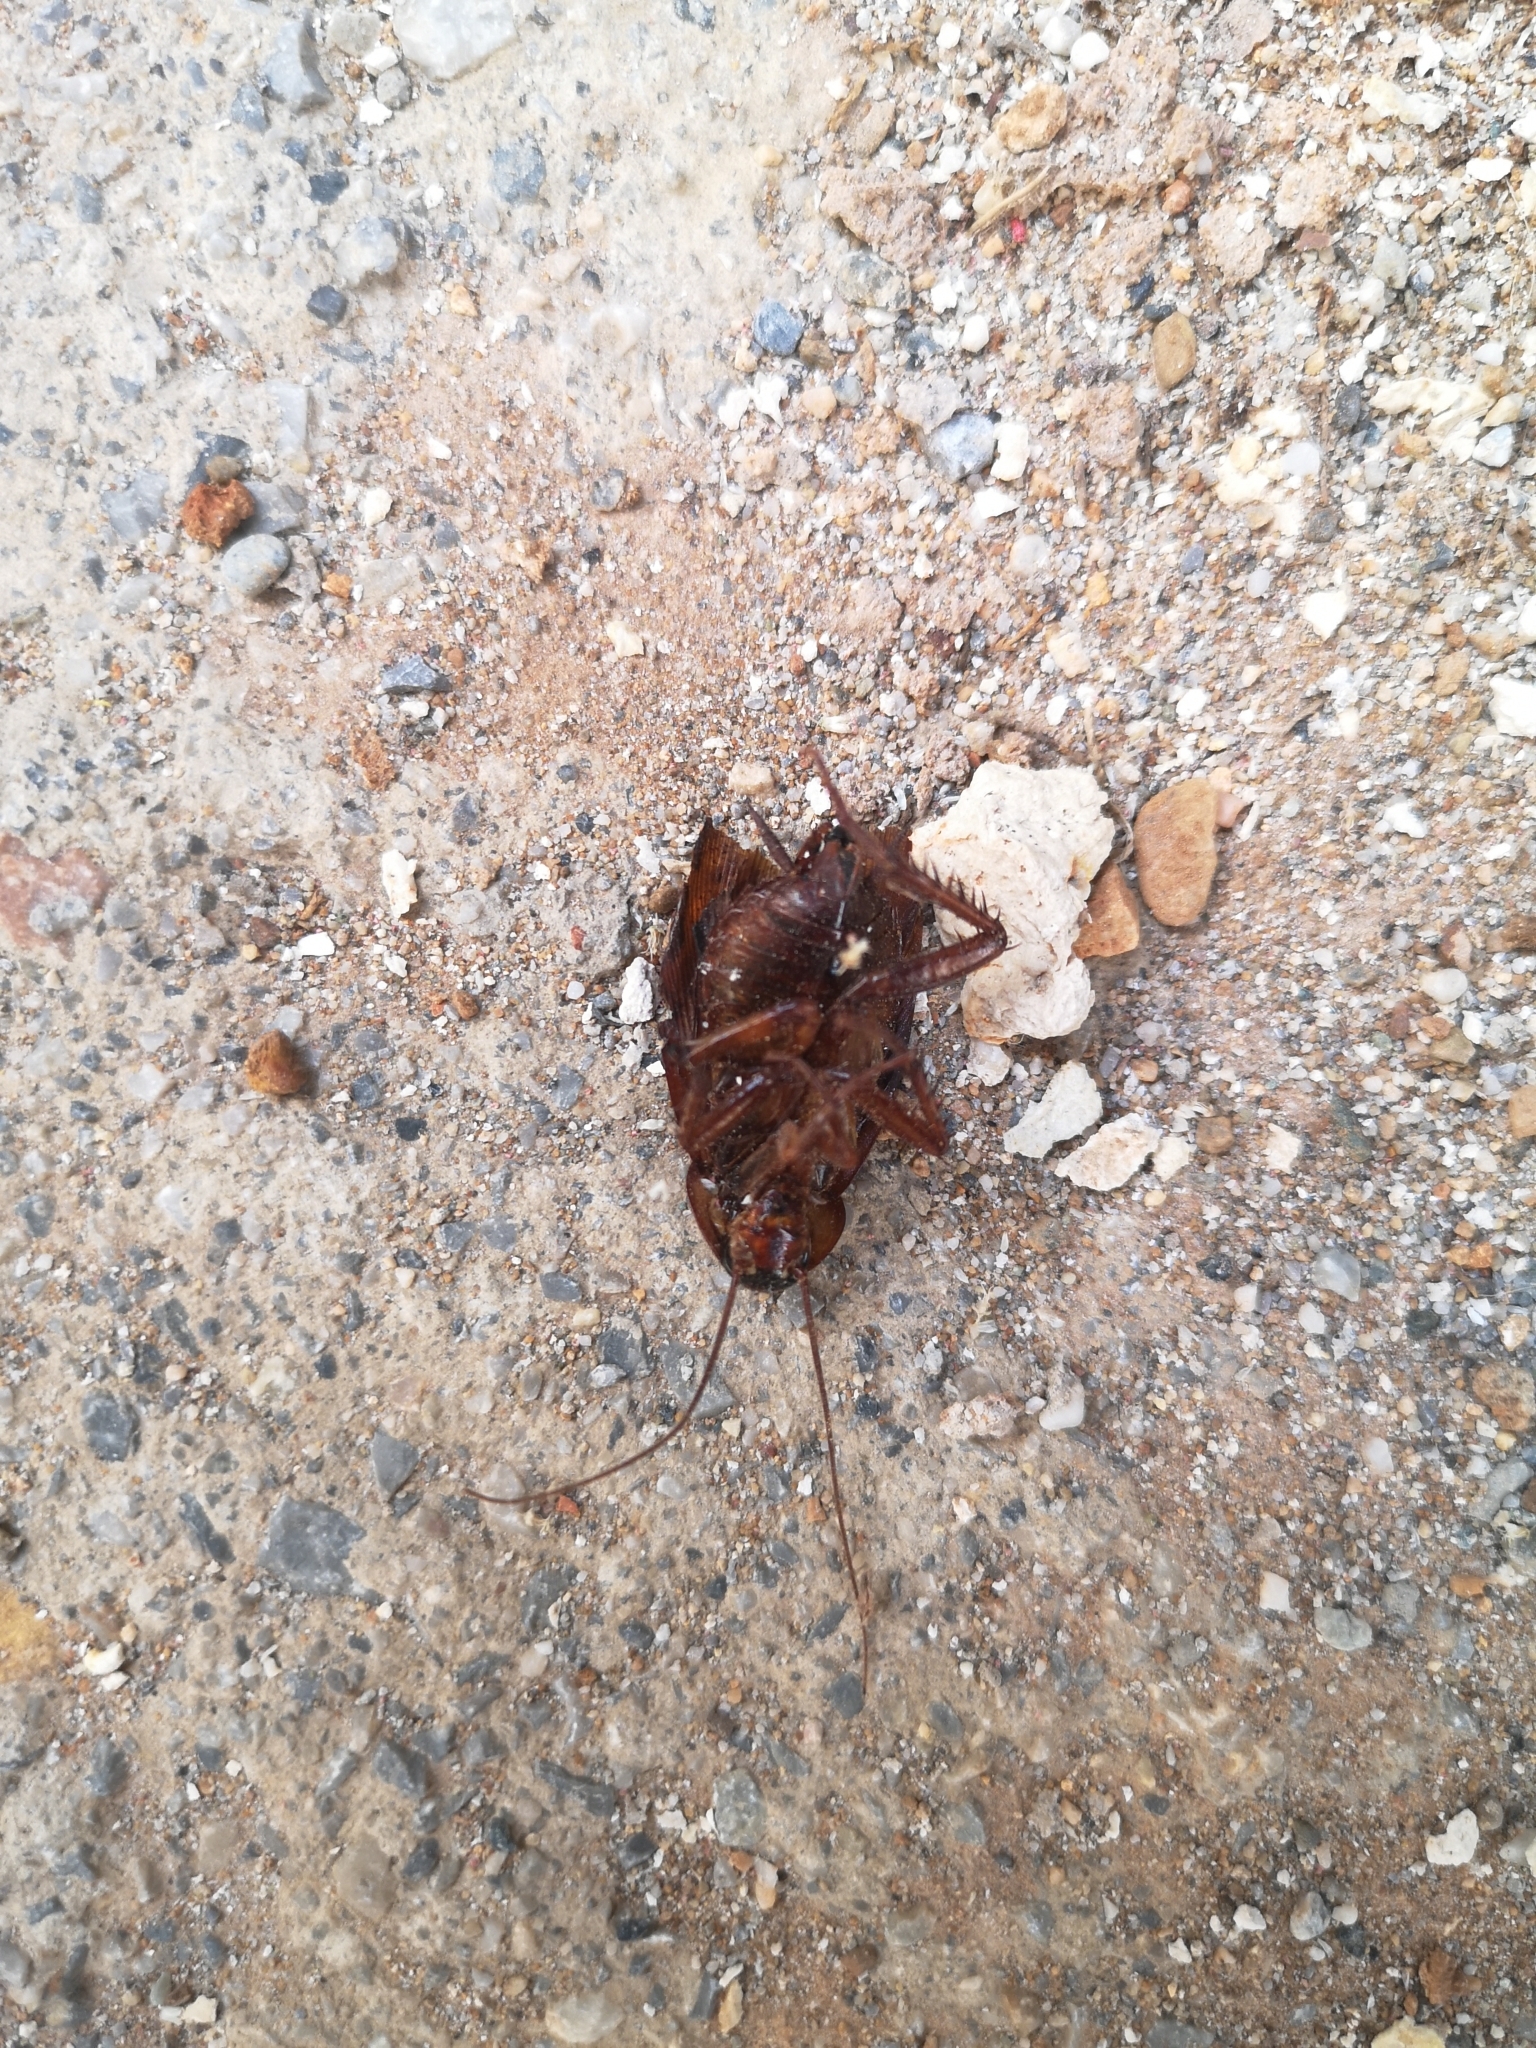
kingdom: Animalia
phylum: Arthropoda
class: Insecta
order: Blattodea
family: Blattidae
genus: Periplaneta
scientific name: Periplaneta americana
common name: American cockroach
